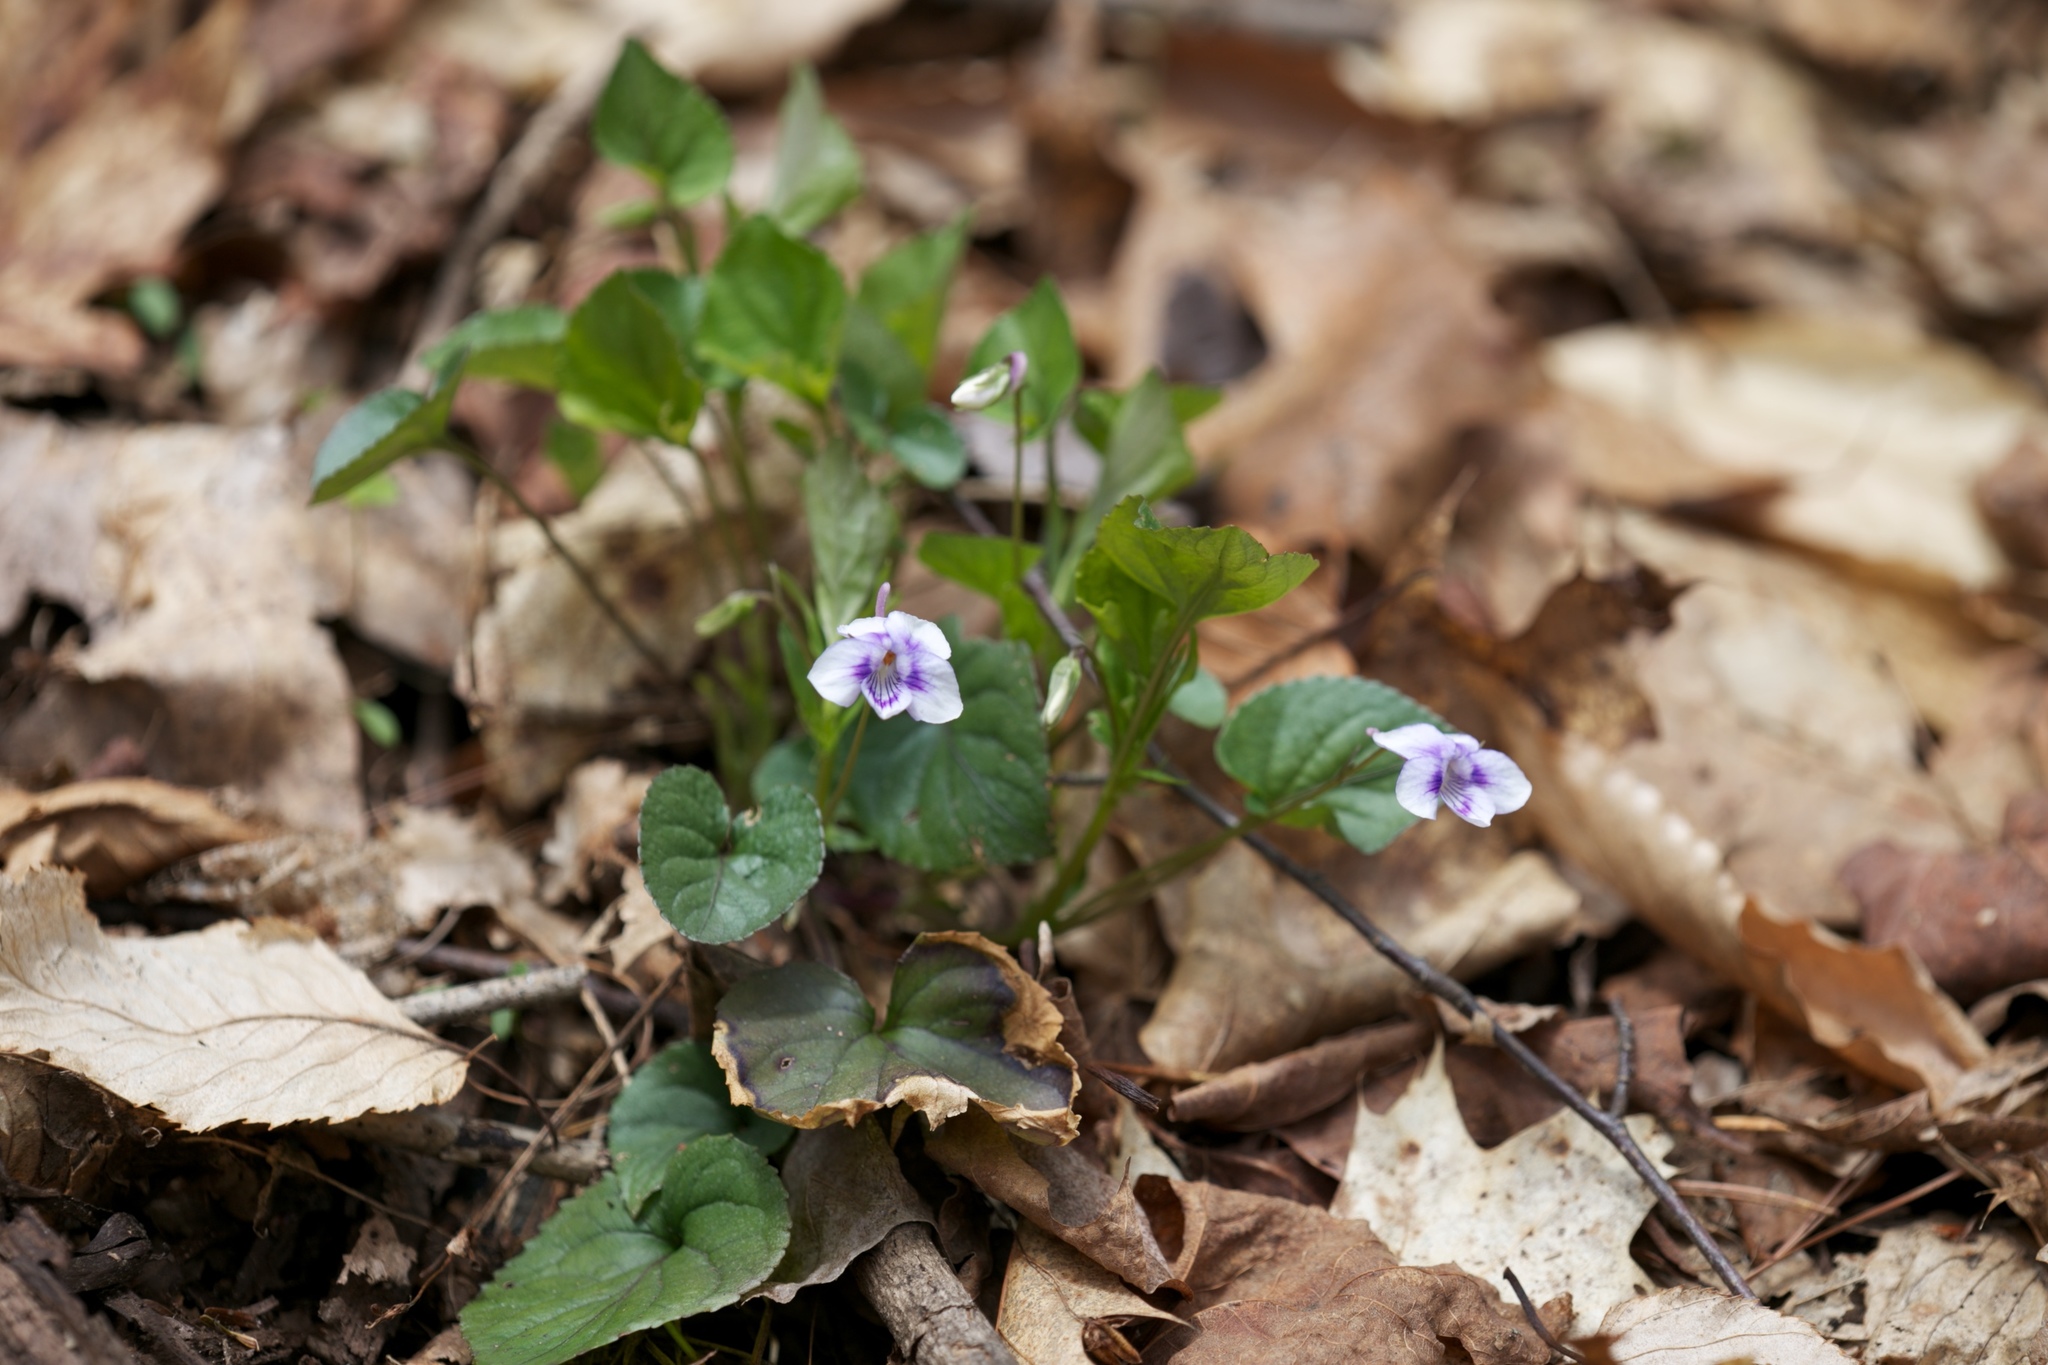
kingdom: Plantae
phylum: Tracheophyta
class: Magnoliopsida
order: Malpighiales
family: Violaceae
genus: Viola
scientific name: Viola rostrata
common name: Long-spur violet
